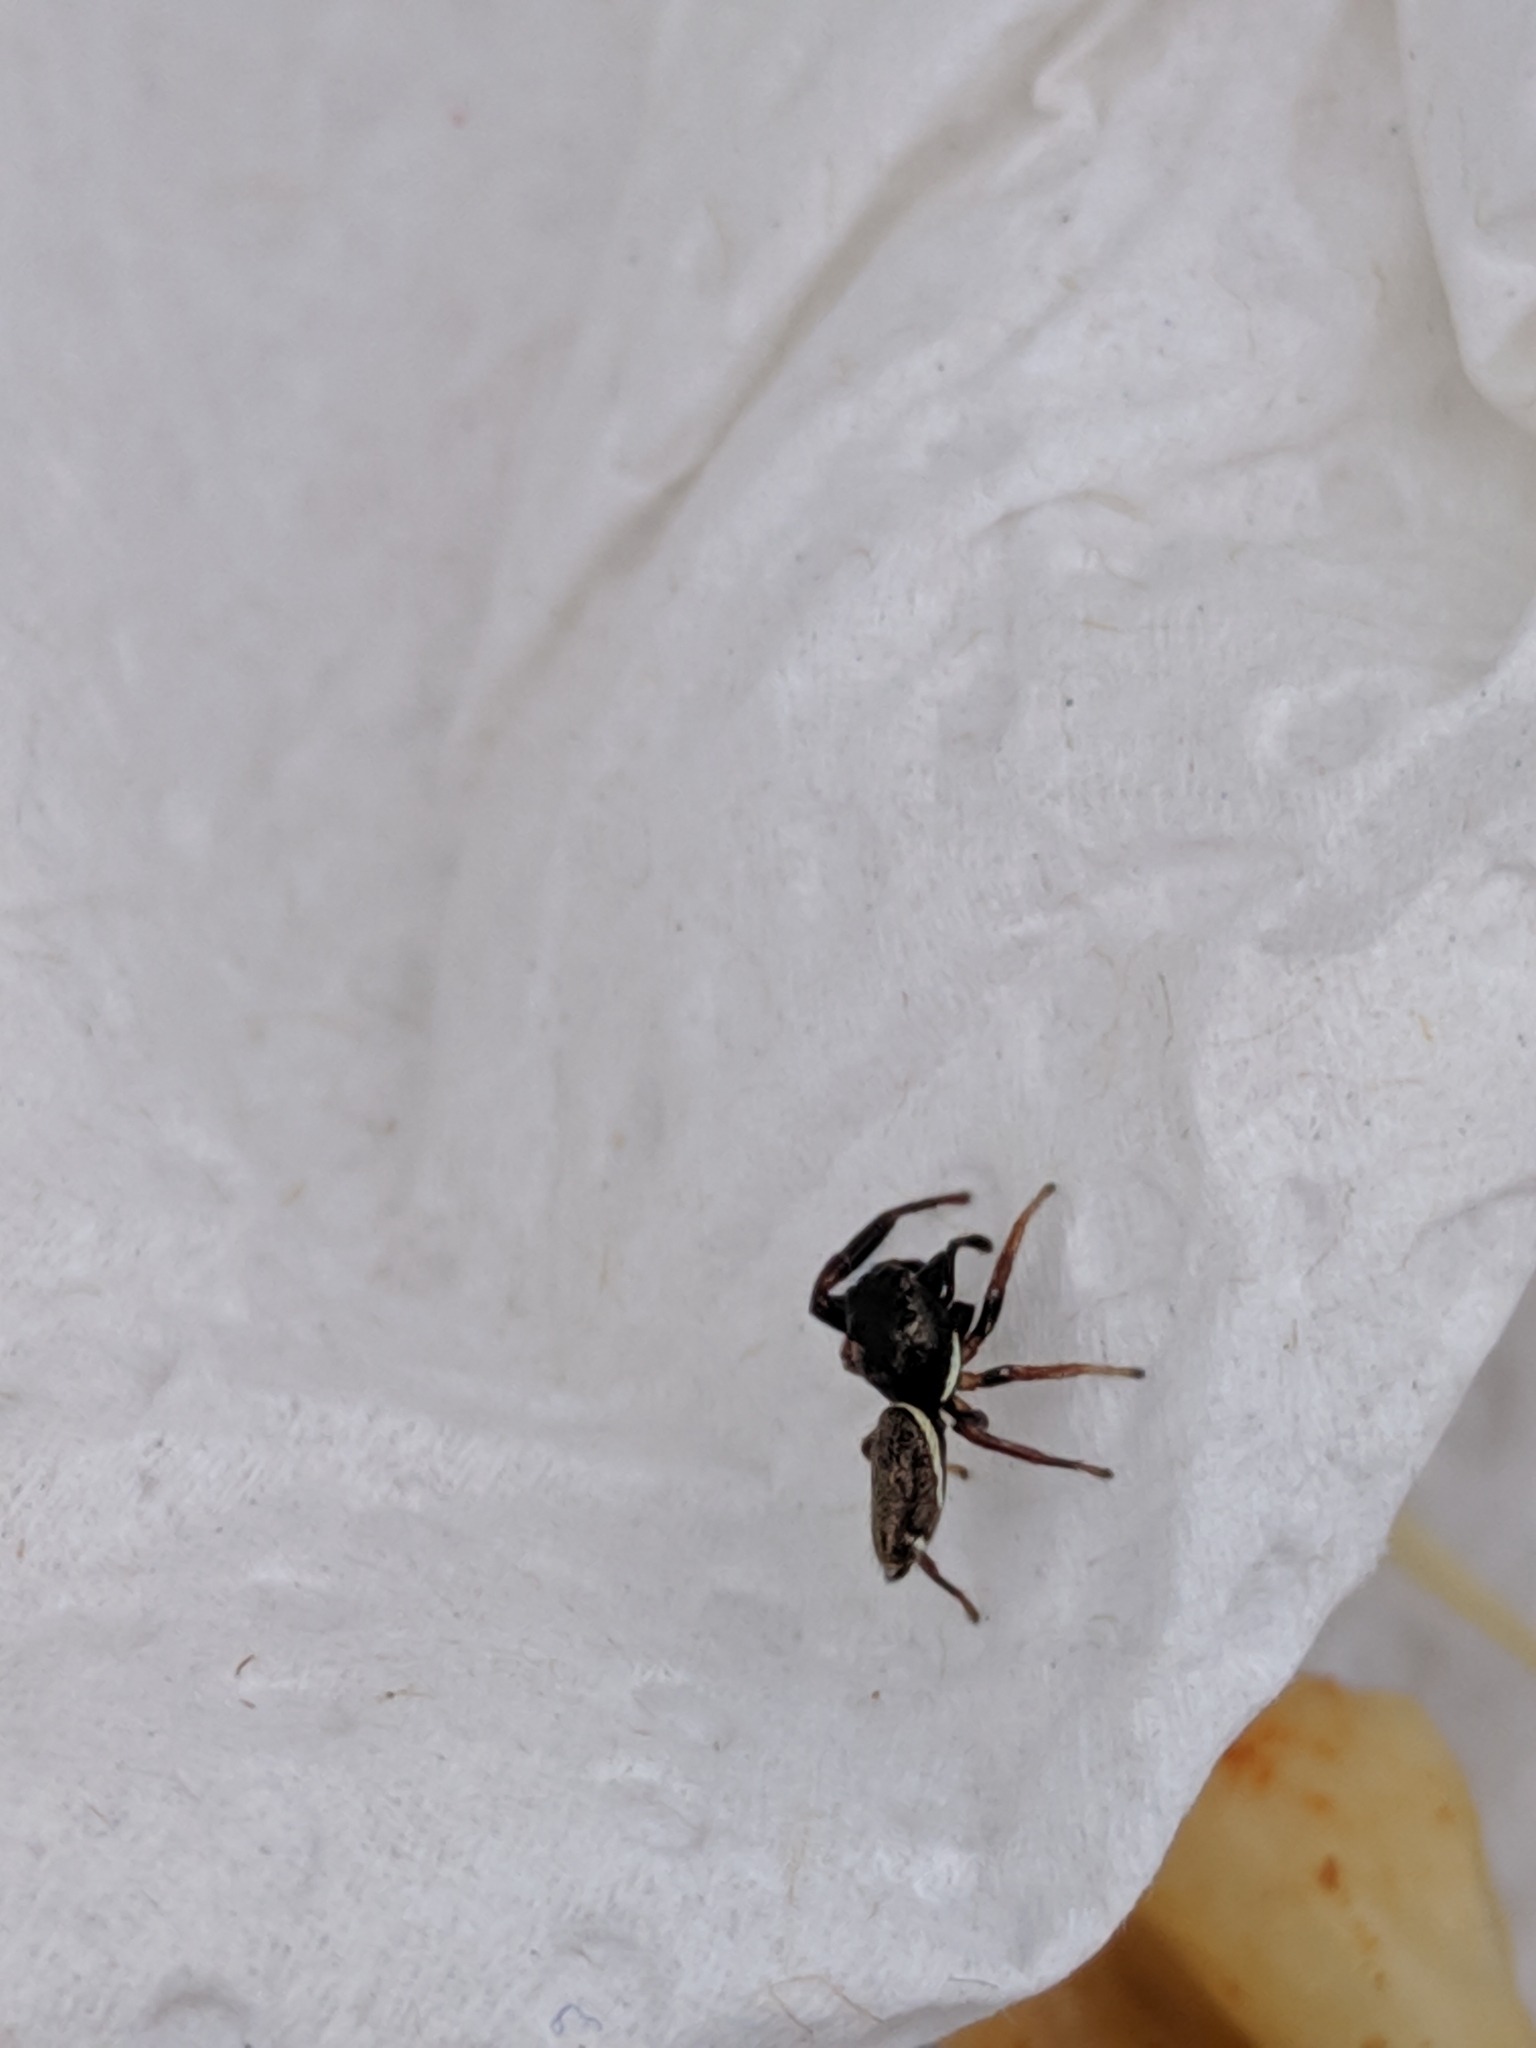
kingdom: Animalia
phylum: Arthropoda
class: Arachnida
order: Araneae
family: Salticidae
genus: Sassacus
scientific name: Sassacus vitis
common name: Jumping spiders
